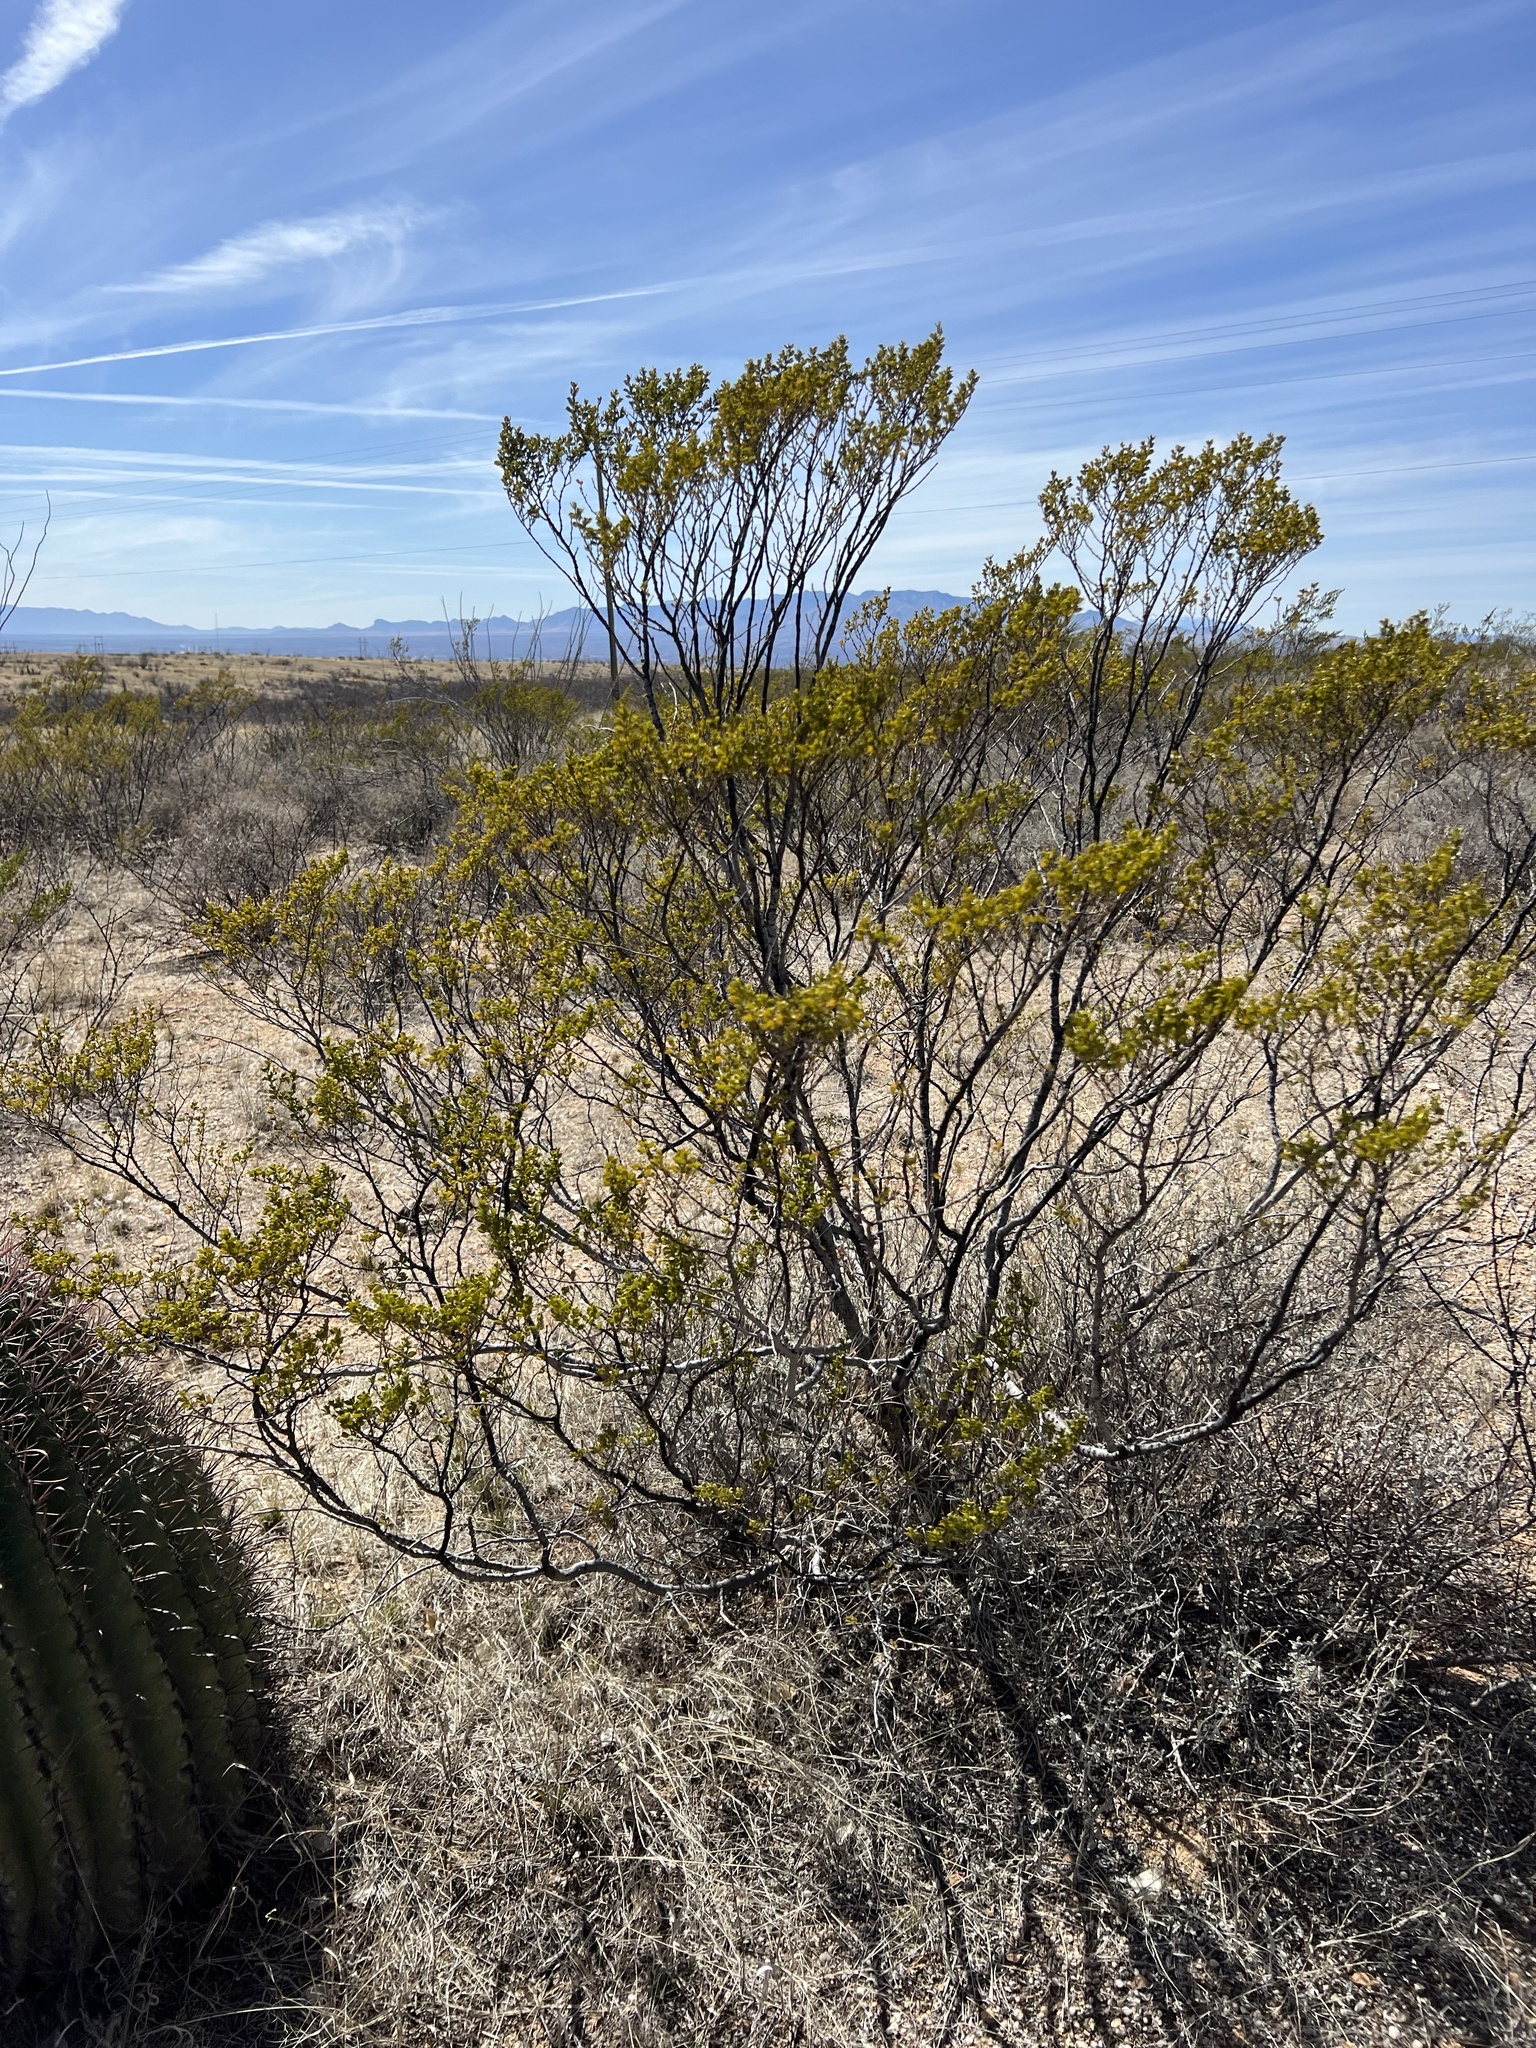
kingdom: Plantae
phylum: Tracheophyta
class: Magnoliopsida
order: Zygophyllales
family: Zygophyllaceae
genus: Larrea
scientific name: Larrea tridentata
